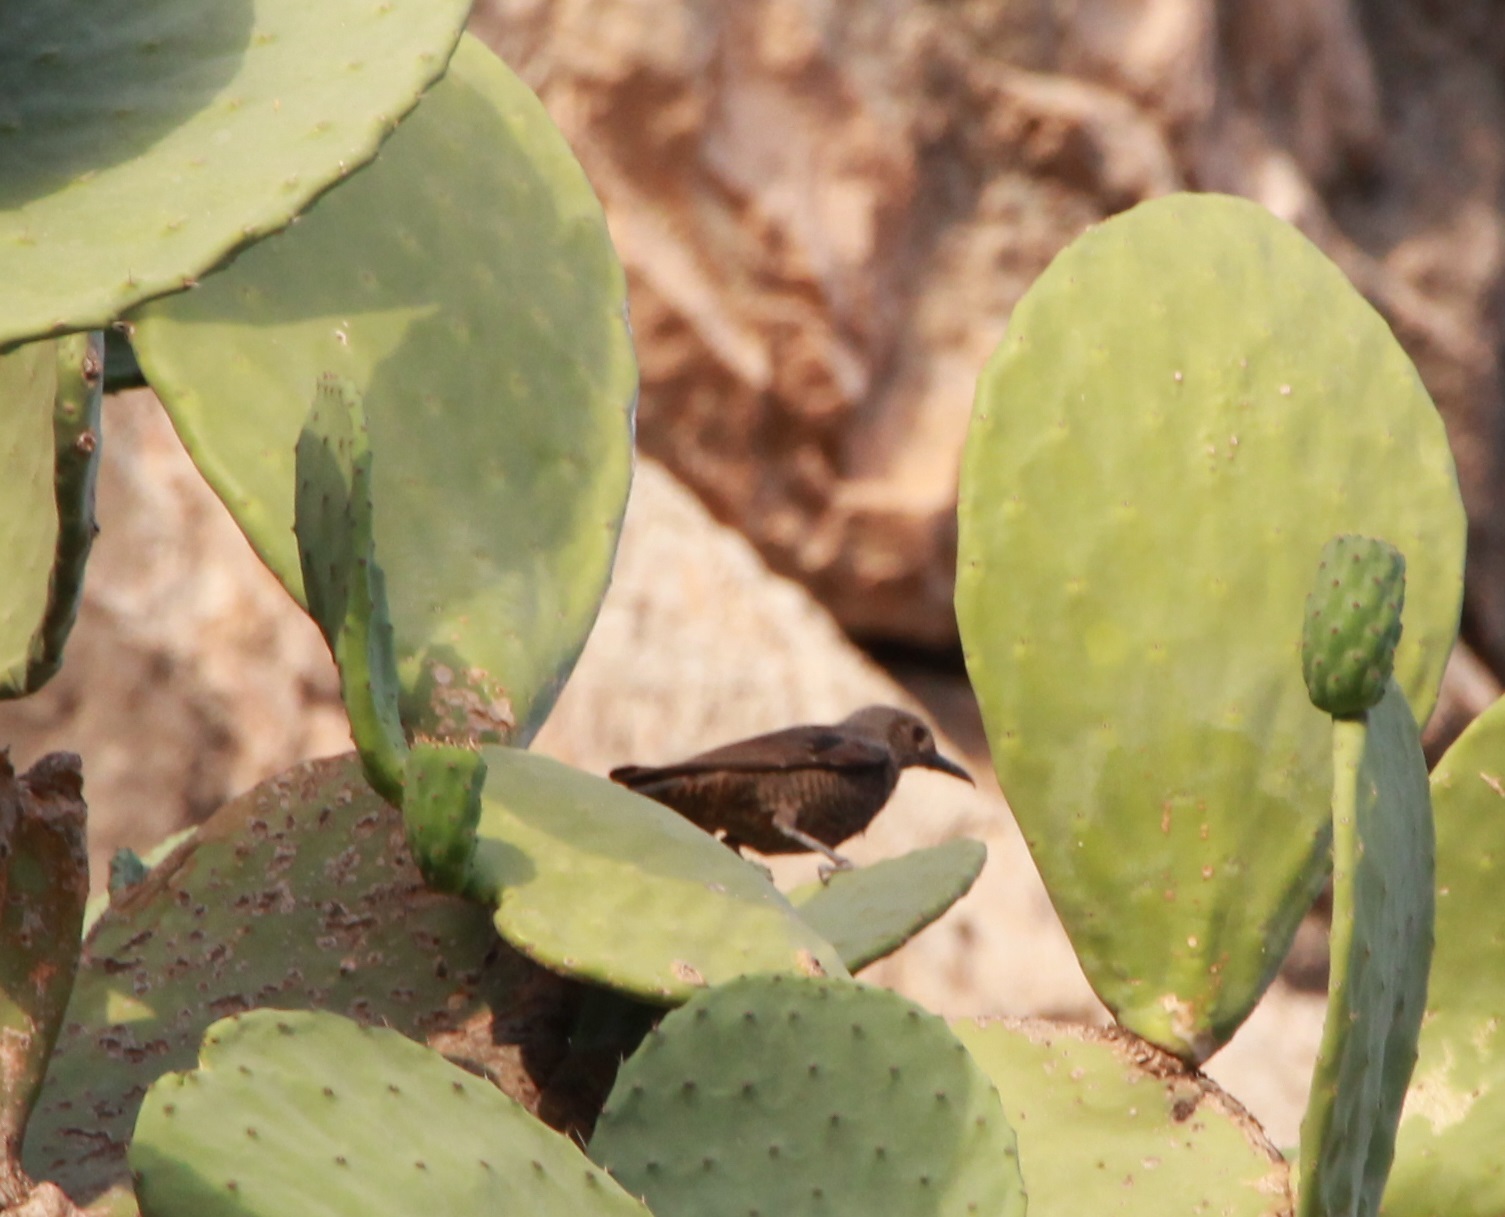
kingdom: Animalia
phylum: Chordata
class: Aves
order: Passeriformes
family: Muscicapidae
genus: Monticola
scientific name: Monticola solitarius
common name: Blue rock thrush
